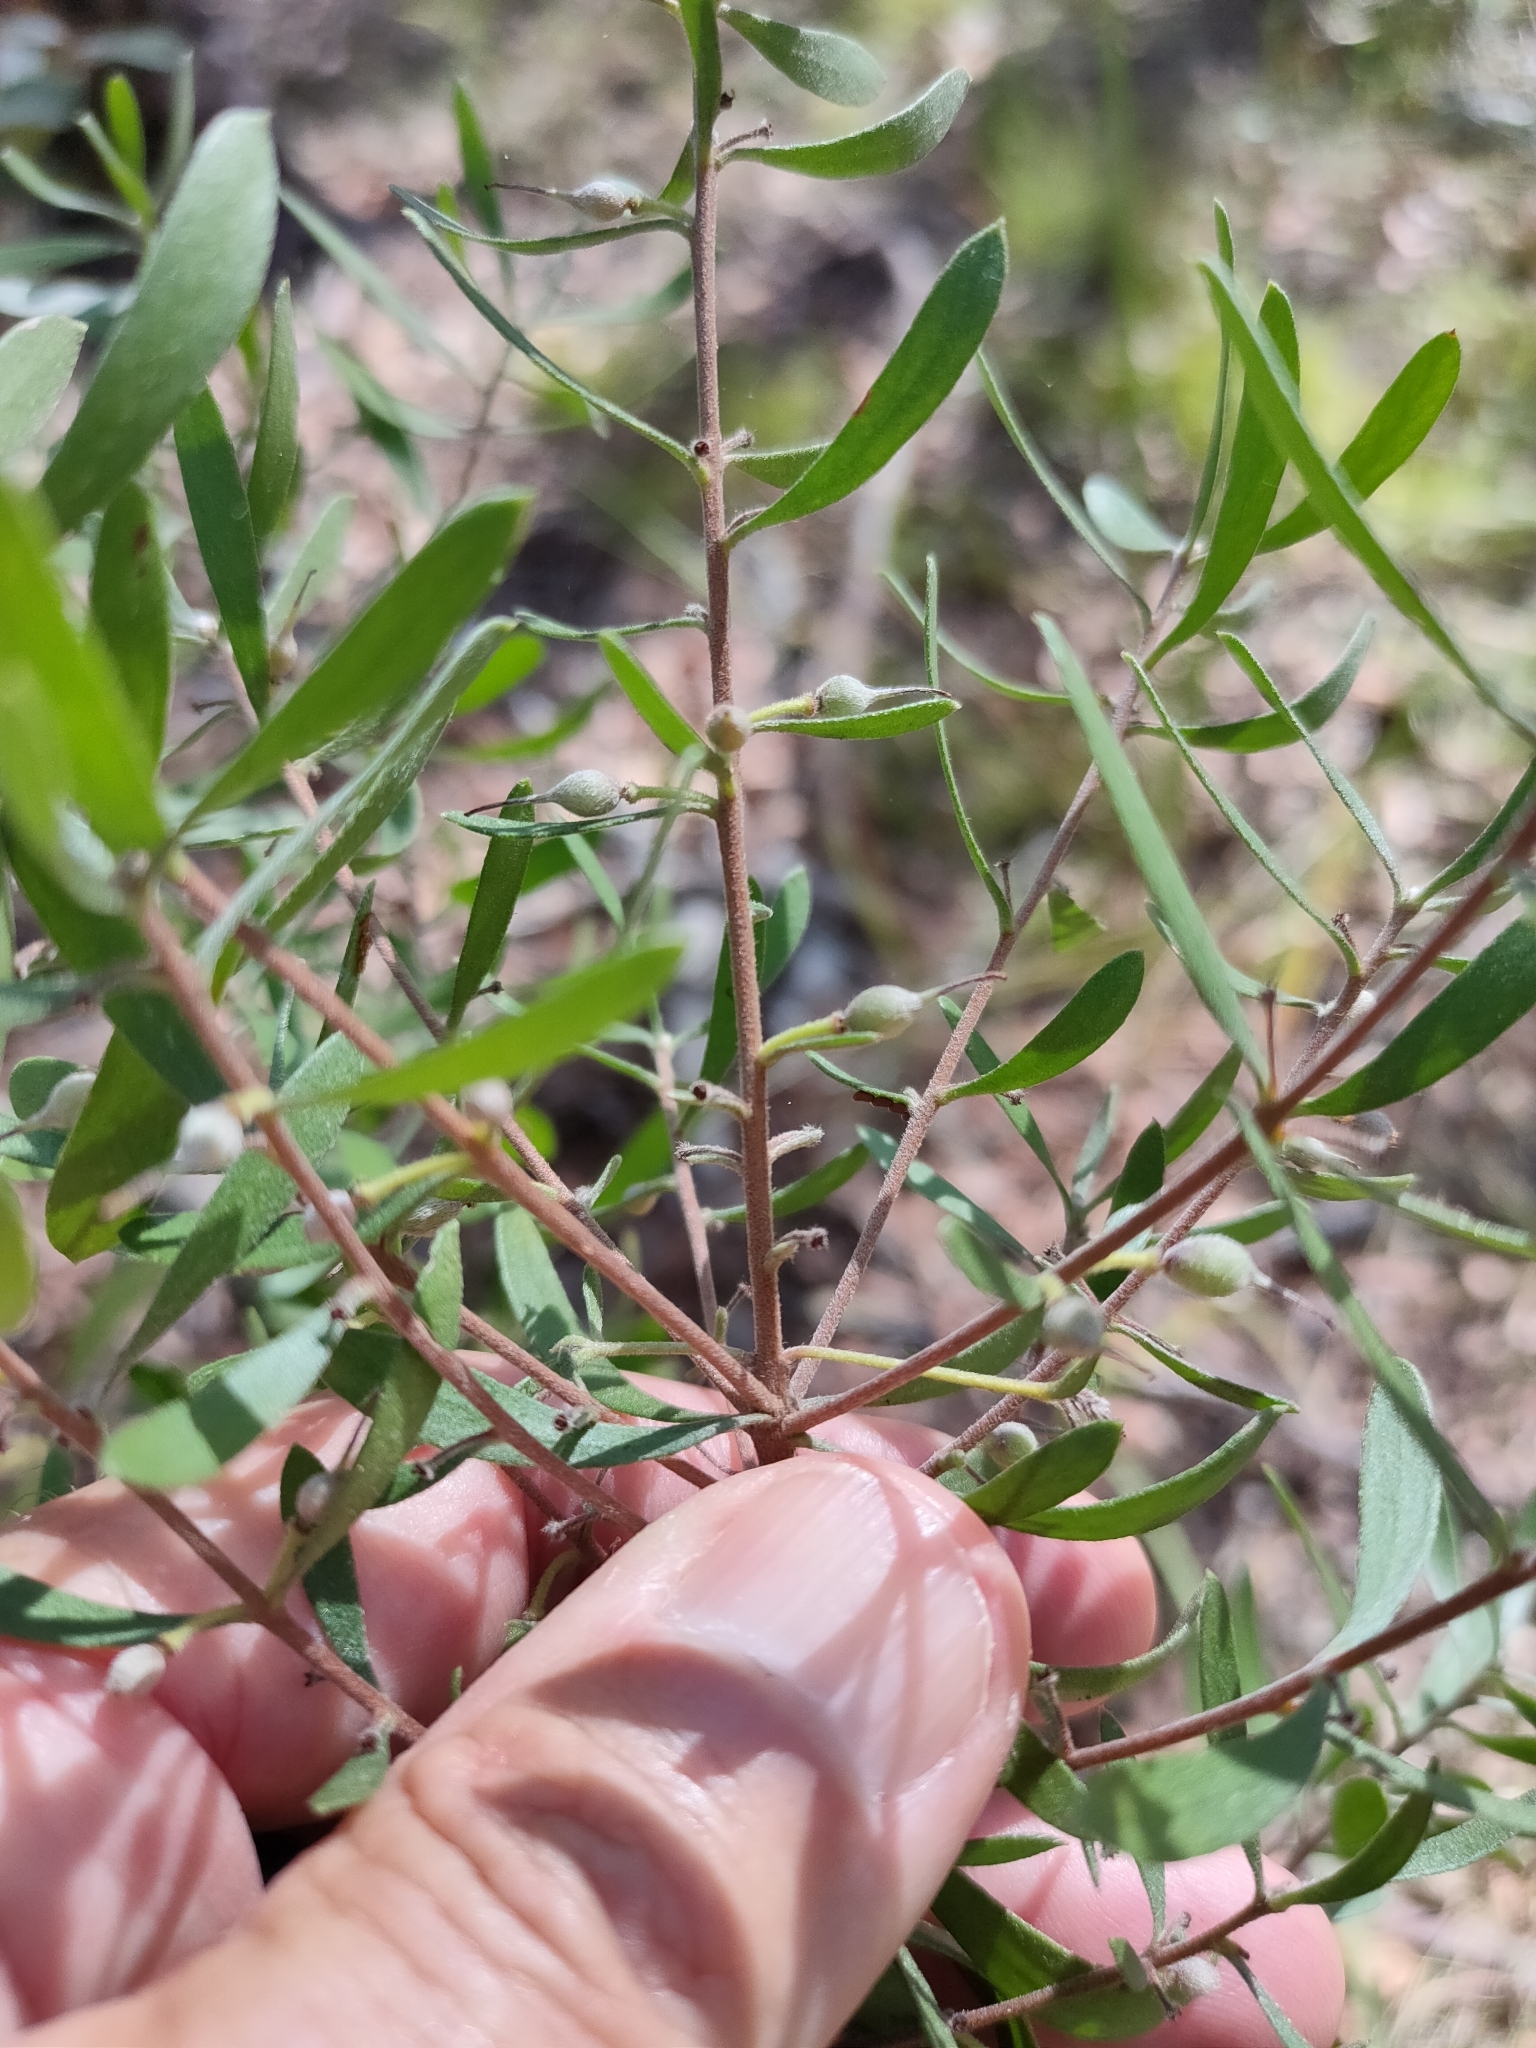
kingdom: Plantae
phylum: Tracheophyta
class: Magnoliopsida
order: Proteales
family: Proteaceae
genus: Persoonia
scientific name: Persoonia sericea
